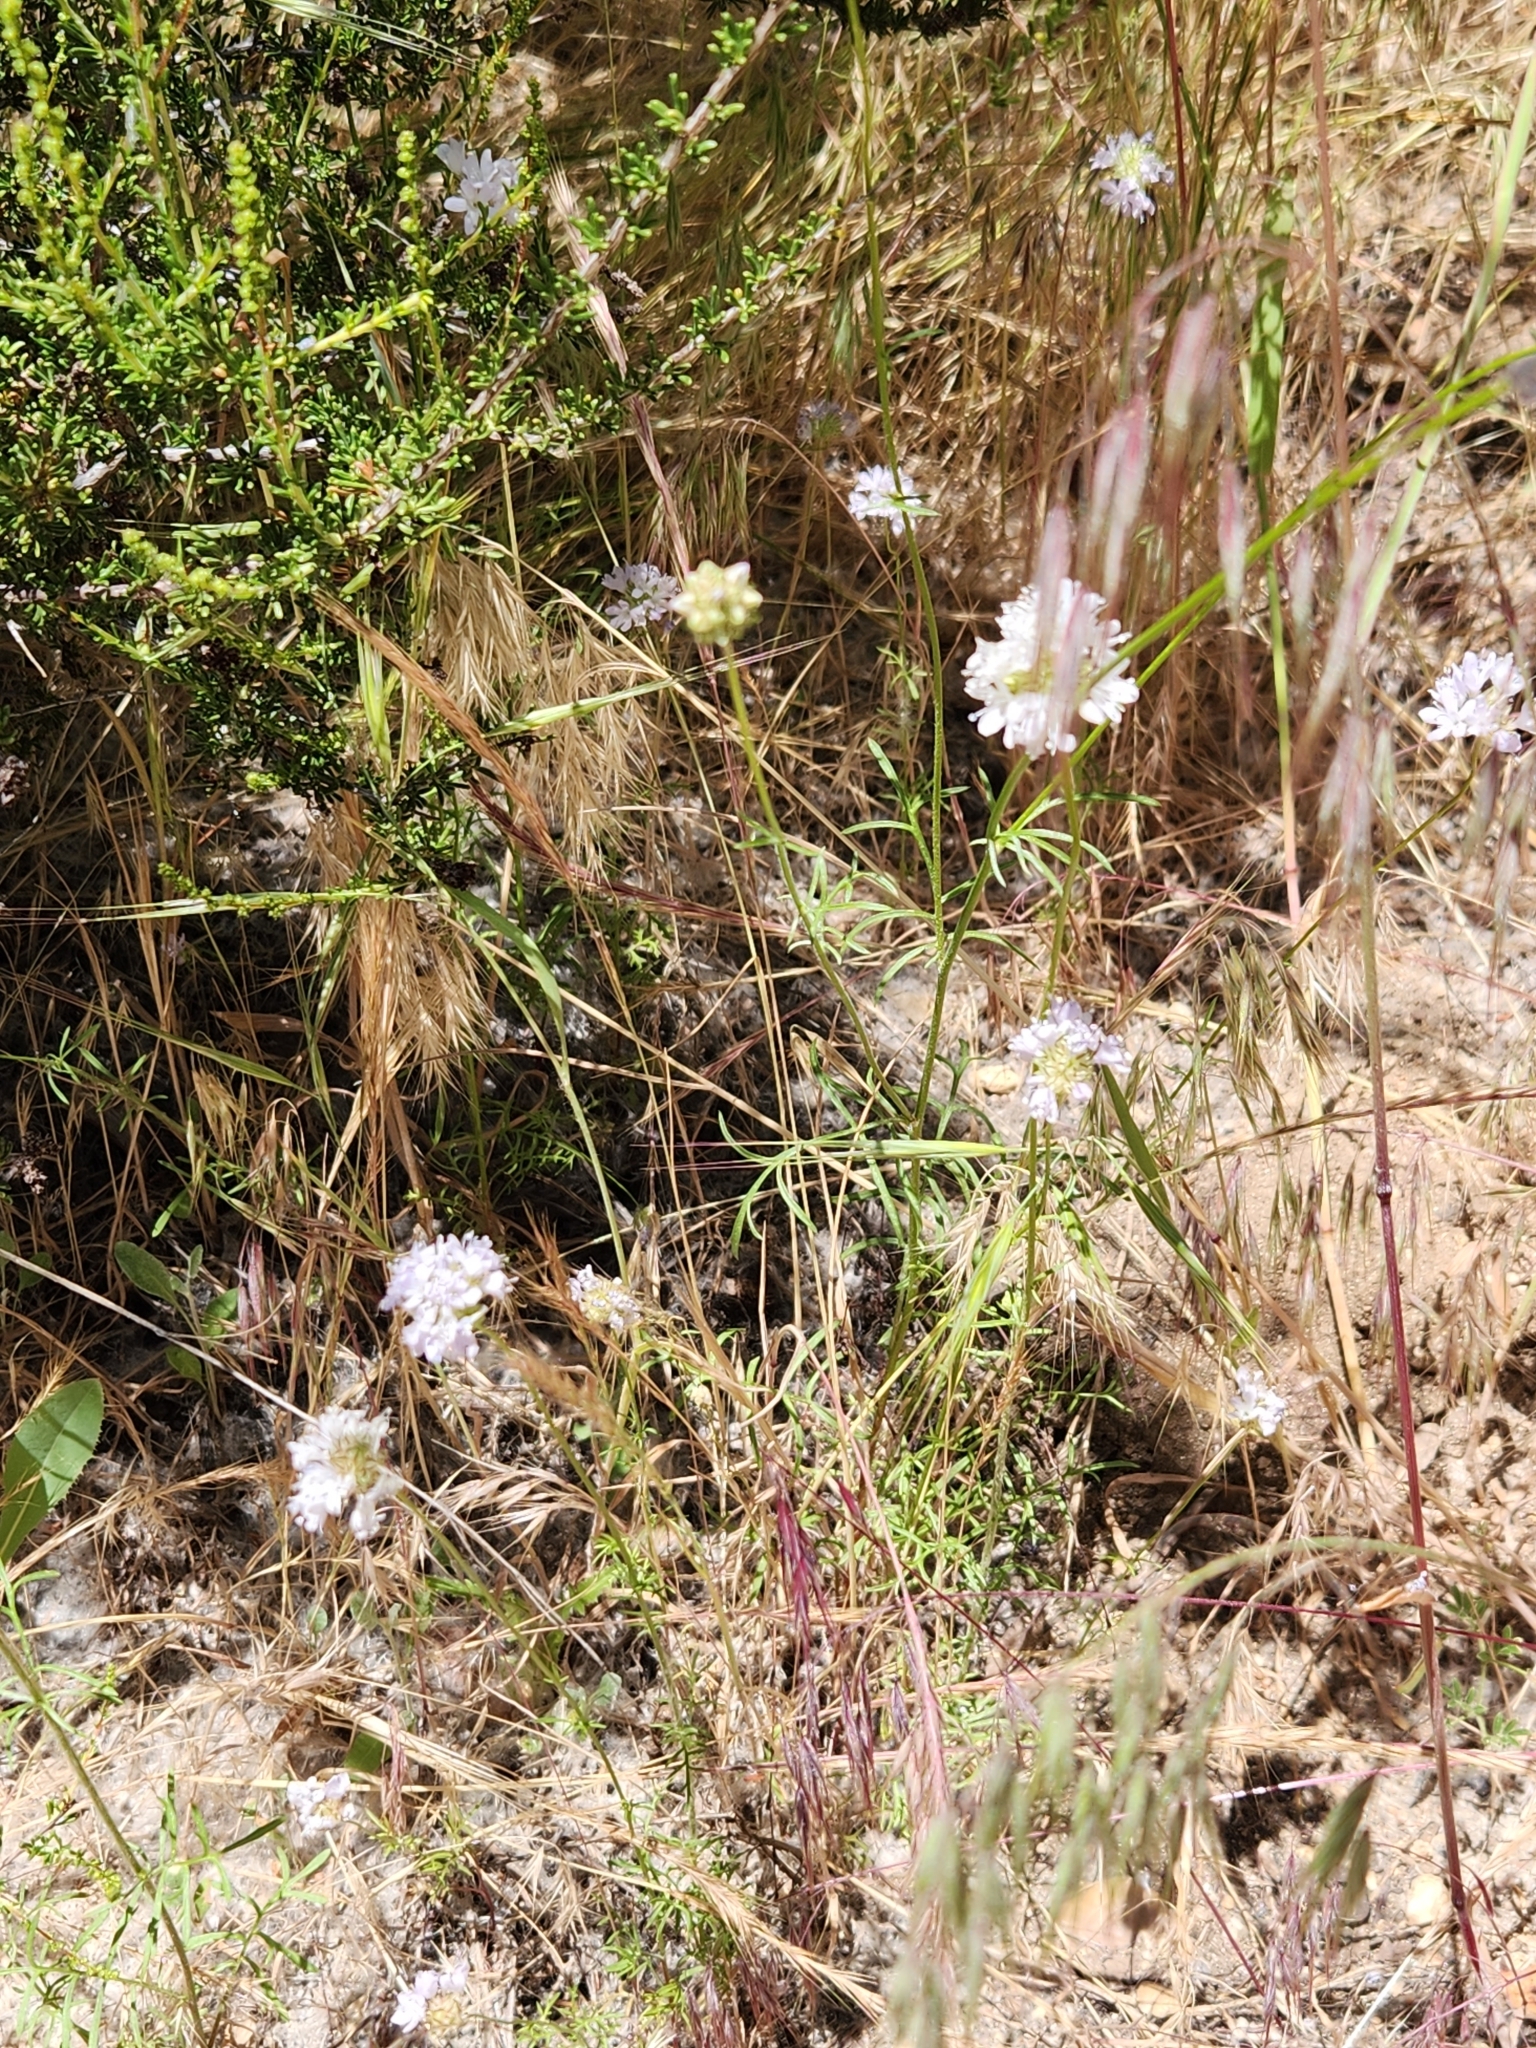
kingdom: Plantae
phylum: Tracheophyta
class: Magnoliopsida
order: Ericales
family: Polemoniaceae
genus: Gilia
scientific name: Gilia capitata
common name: Bluehead gilia
